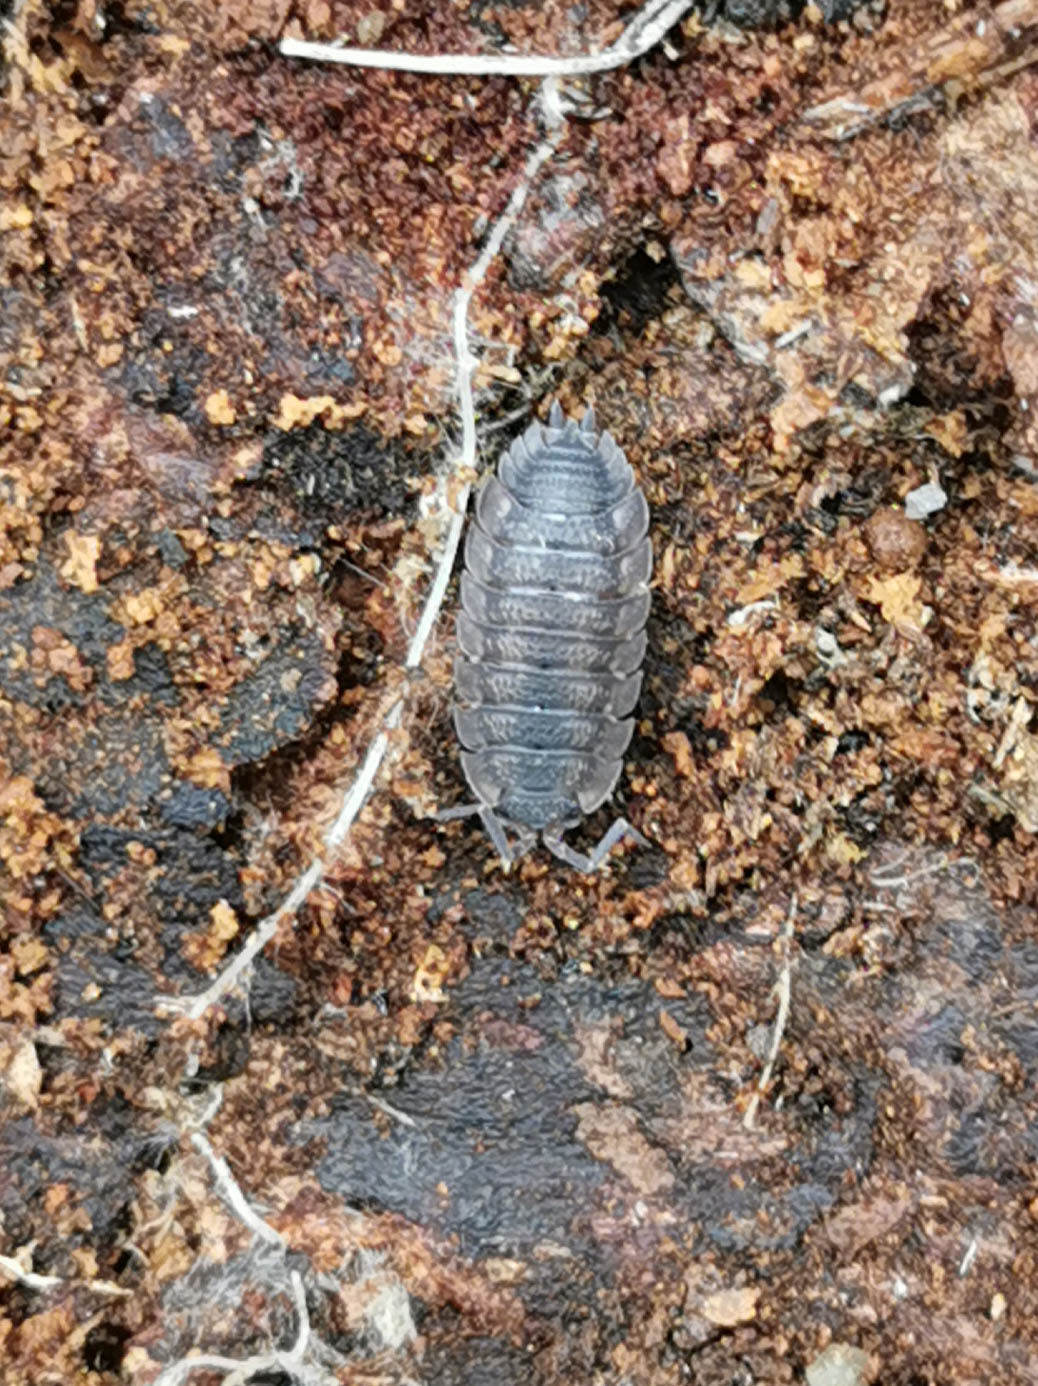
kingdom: Animalia
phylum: Arthropoda
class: Malacostraca
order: Isopoda
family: Porcellionidae
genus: Porcellio
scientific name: Porcellio scaber
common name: Common rough woodlouse
